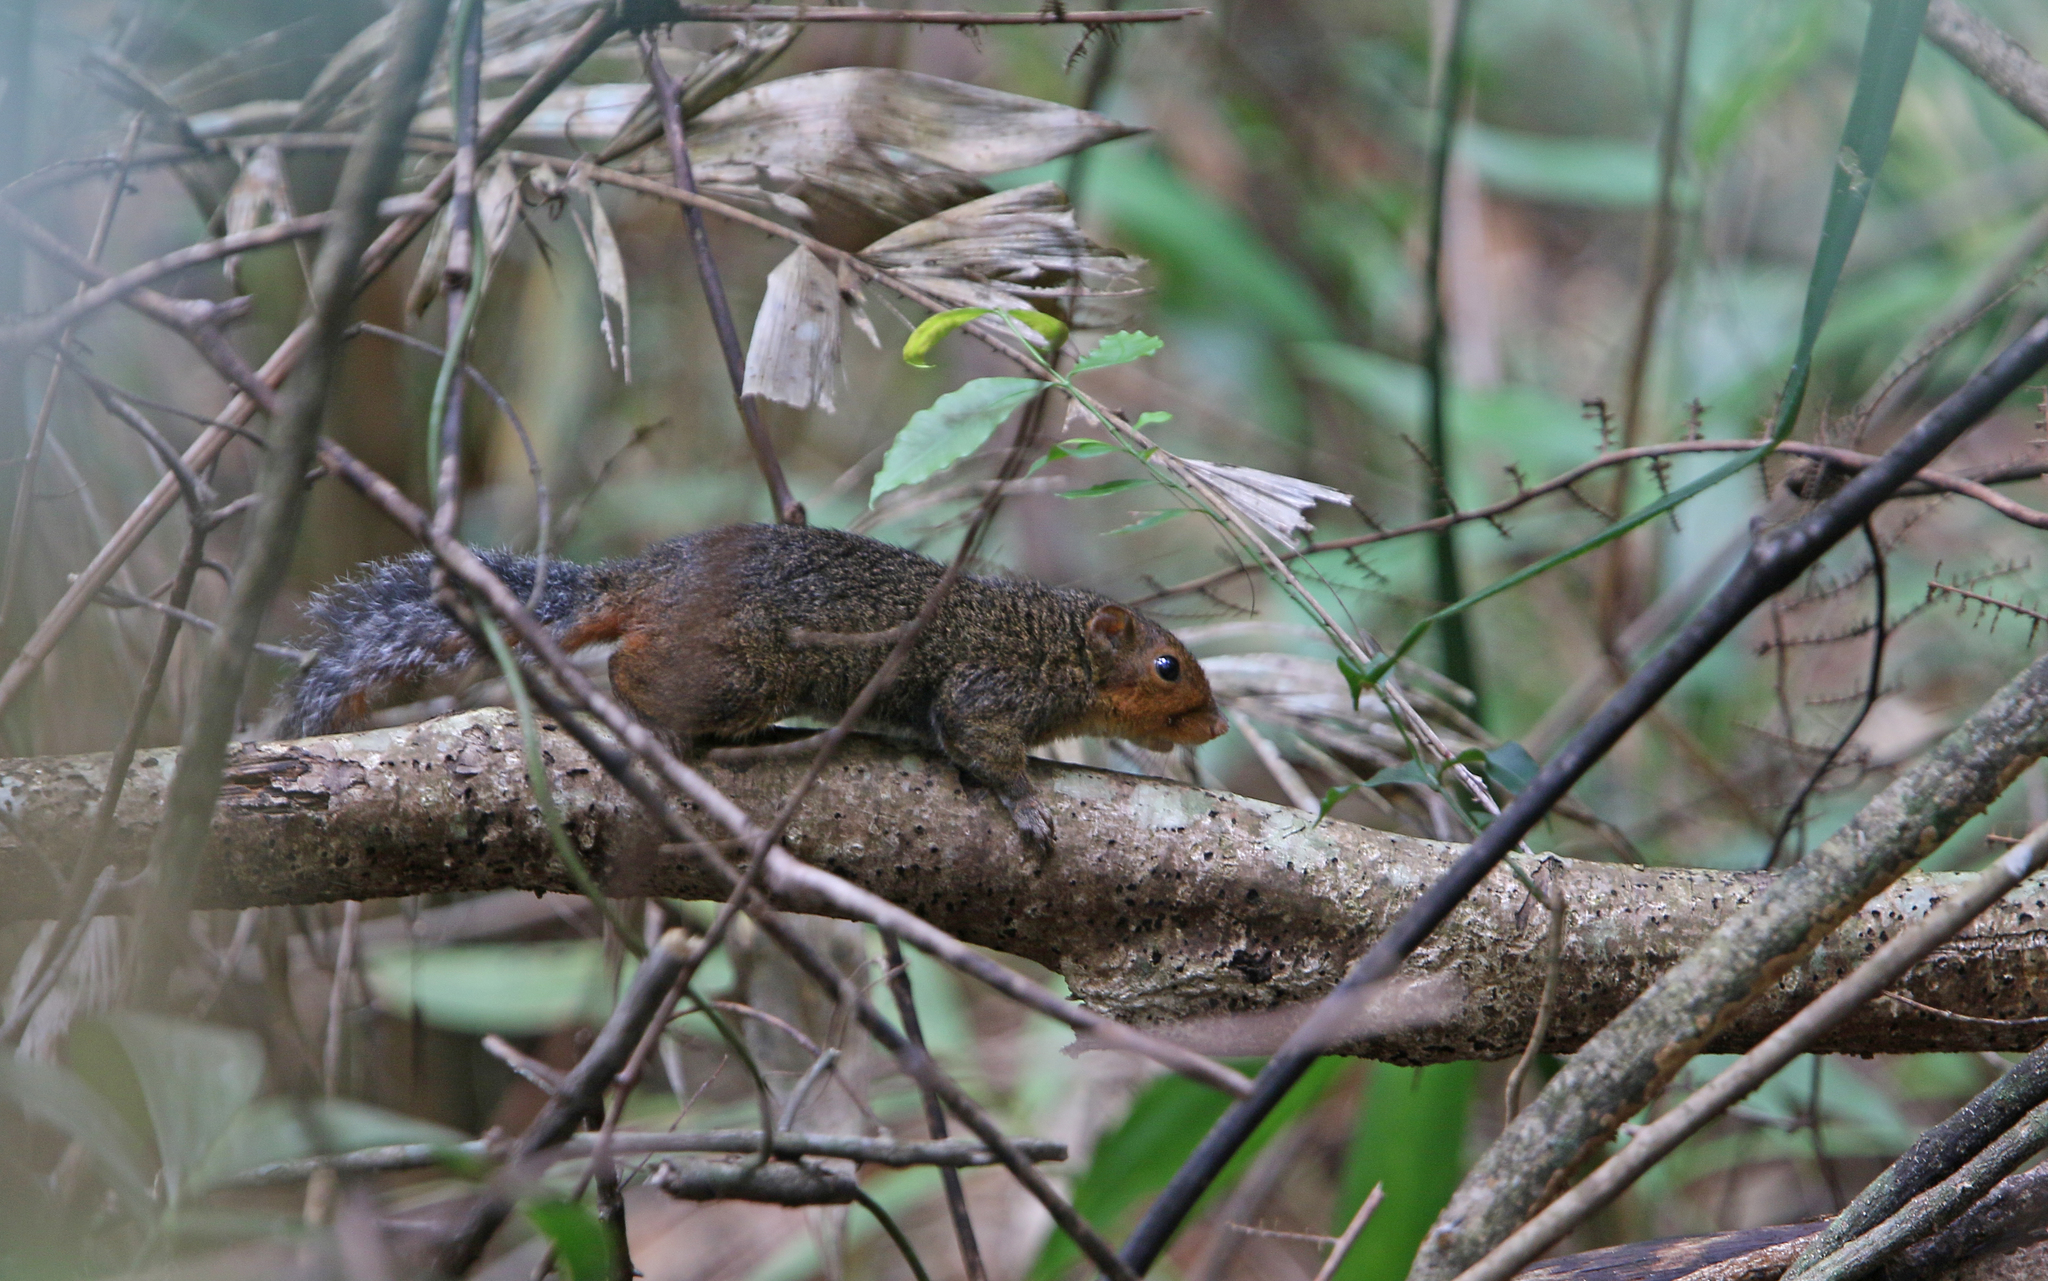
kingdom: Animalia
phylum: Chordata
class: Mammalia
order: Rodentia
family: Sciuridae
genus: Dremomys
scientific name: Dremomys rufigenis
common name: Asian red-cheeked squirrel
